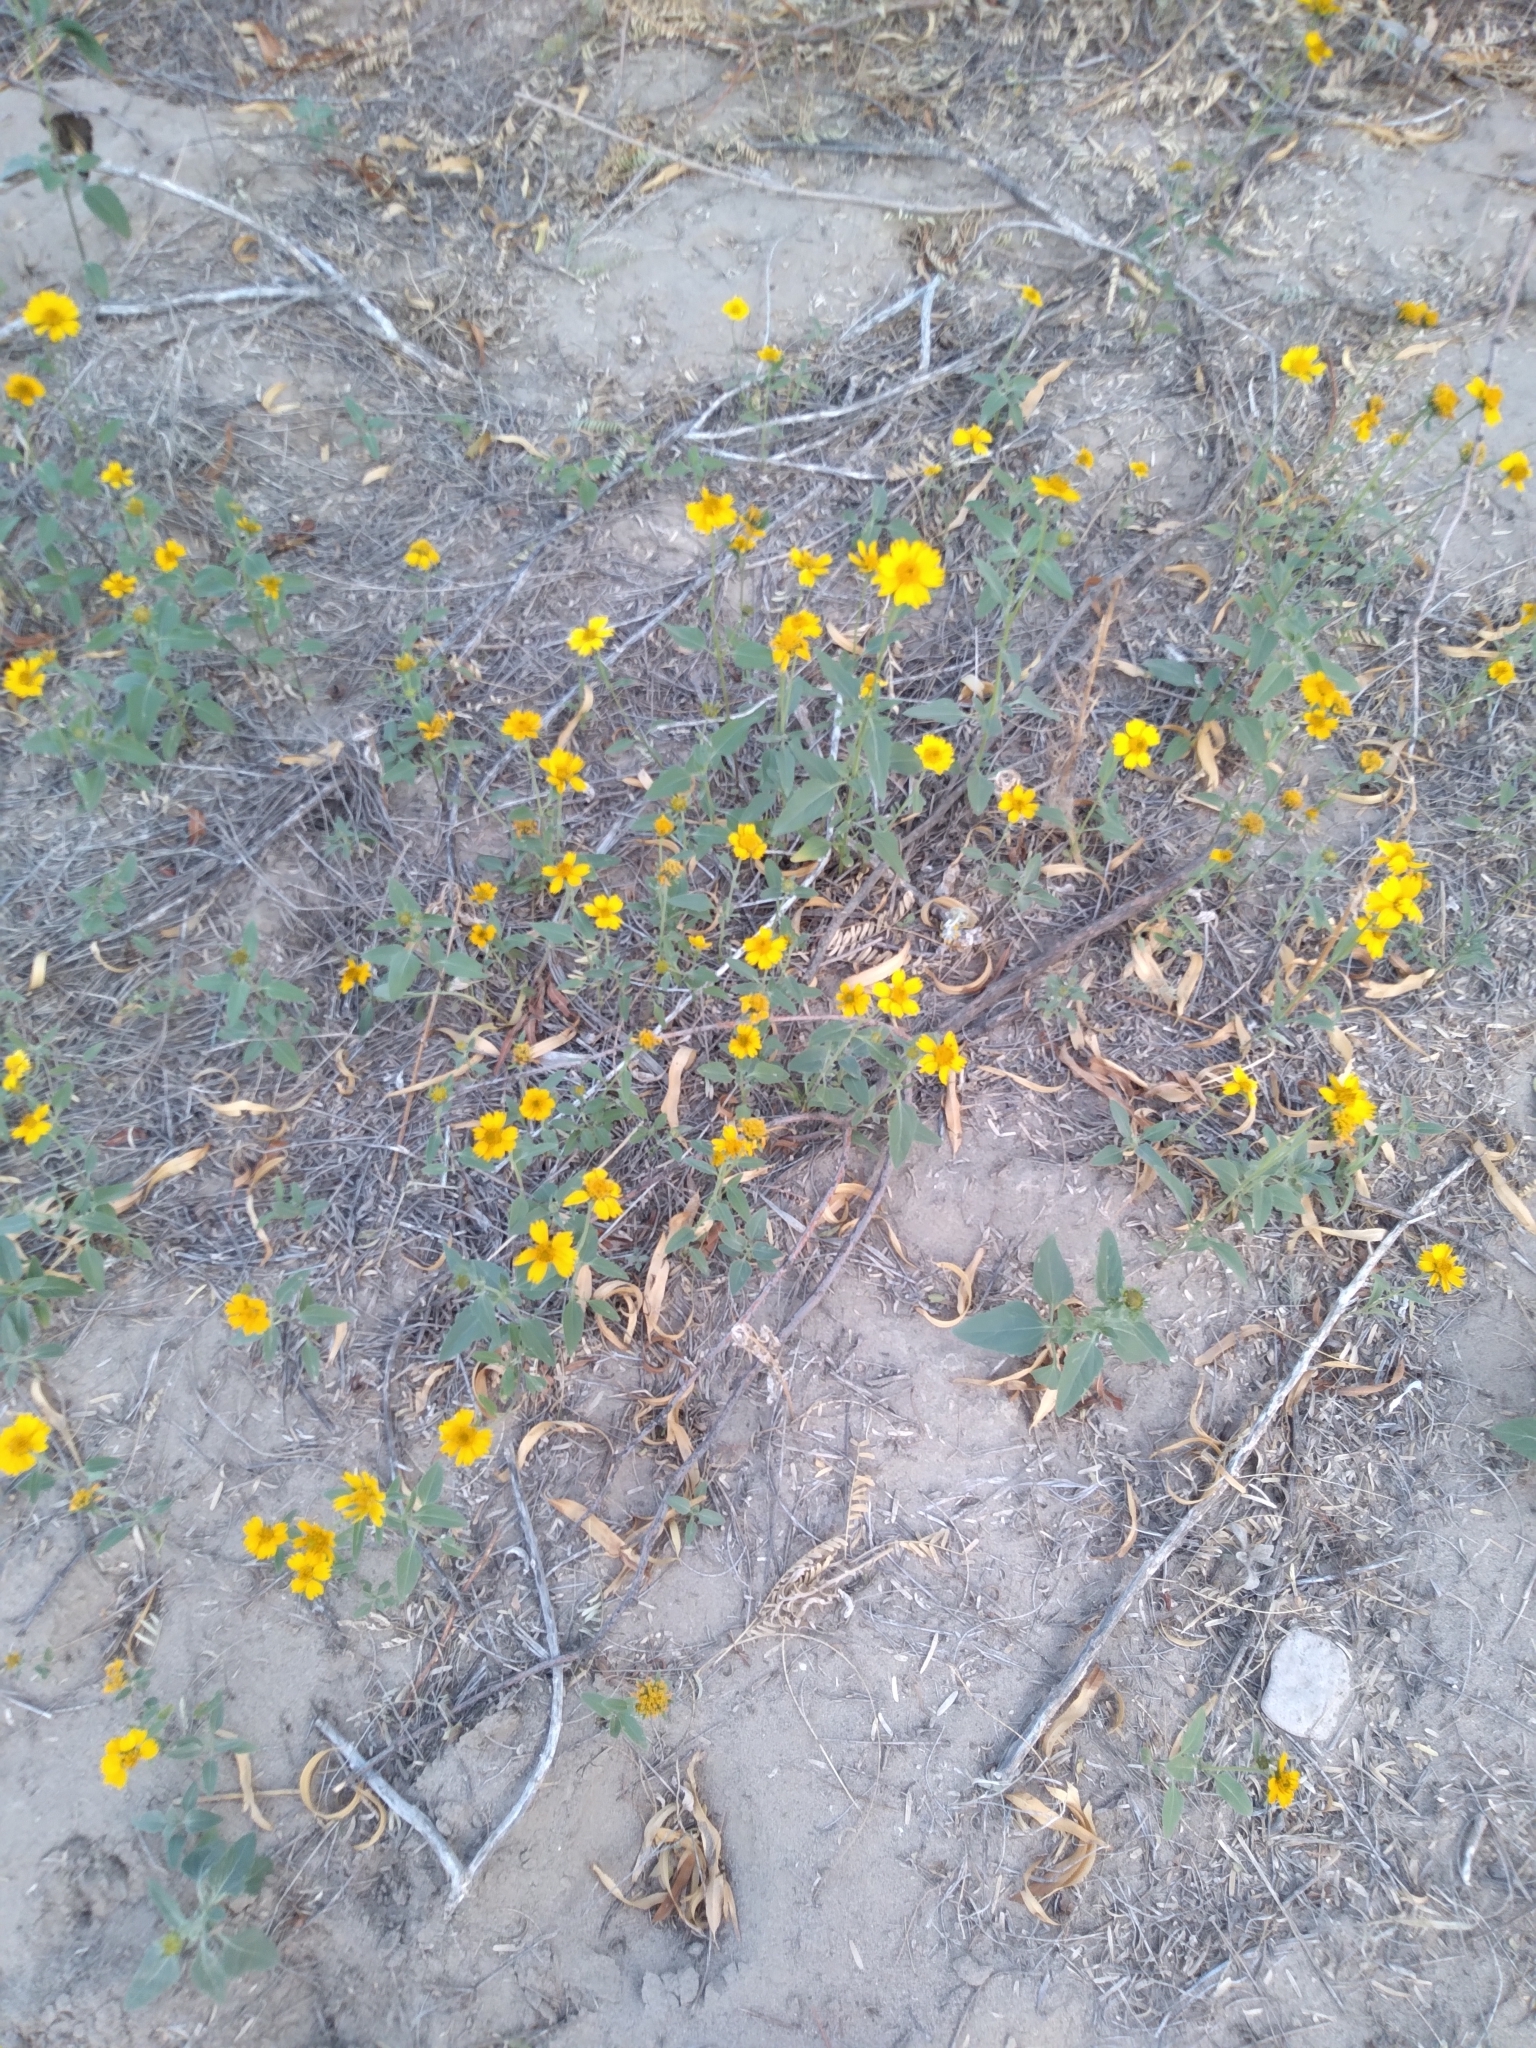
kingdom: Plantae
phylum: Tracheophyta
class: Magnoliopsida
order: Asterales
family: Asteraceae
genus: Verbesina
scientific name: Verbesina encelioides
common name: Golden crownbeard
